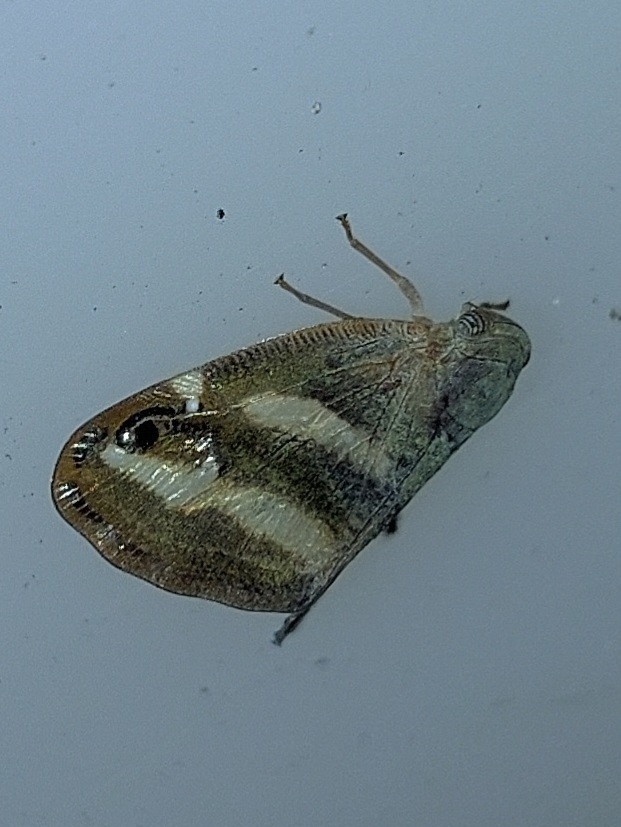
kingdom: Animalia
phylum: Arthropoda
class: Insecta
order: Hemiptera
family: Ricaniidae
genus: Orosanga
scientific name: Orosanga japonica
